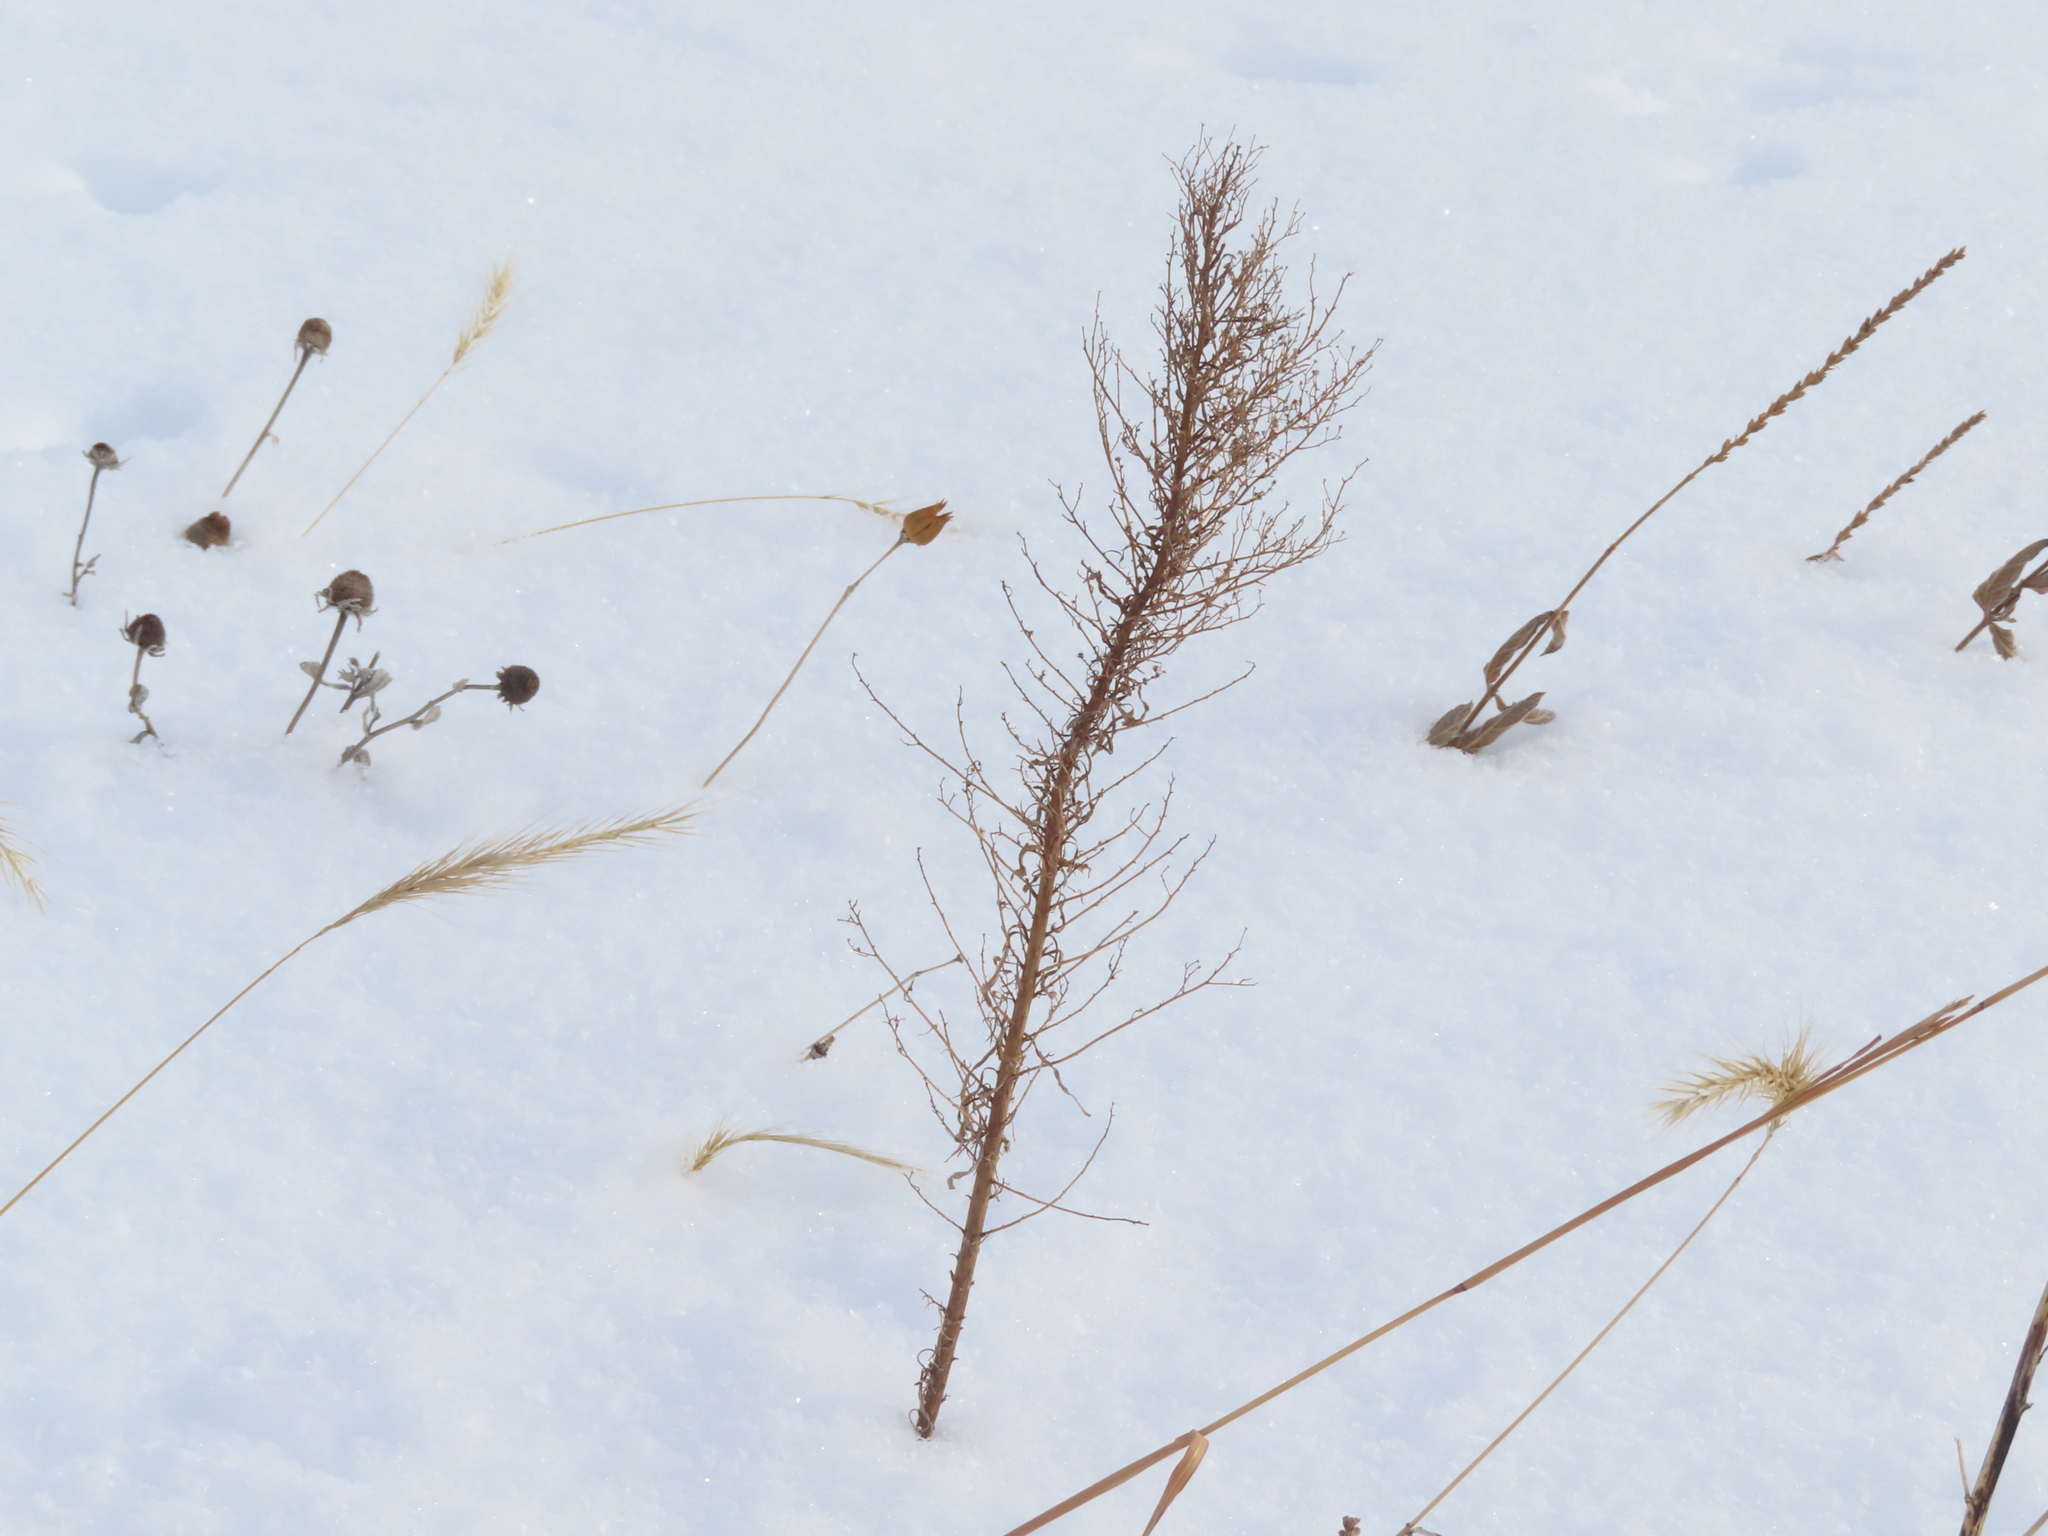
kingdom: Plantae
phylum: Tracheophyta
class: Magnoliopsida
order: Asterales
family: Asteraceae
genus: Erigeron
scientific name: Erigeron canadensis
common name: Canadian fleabane
